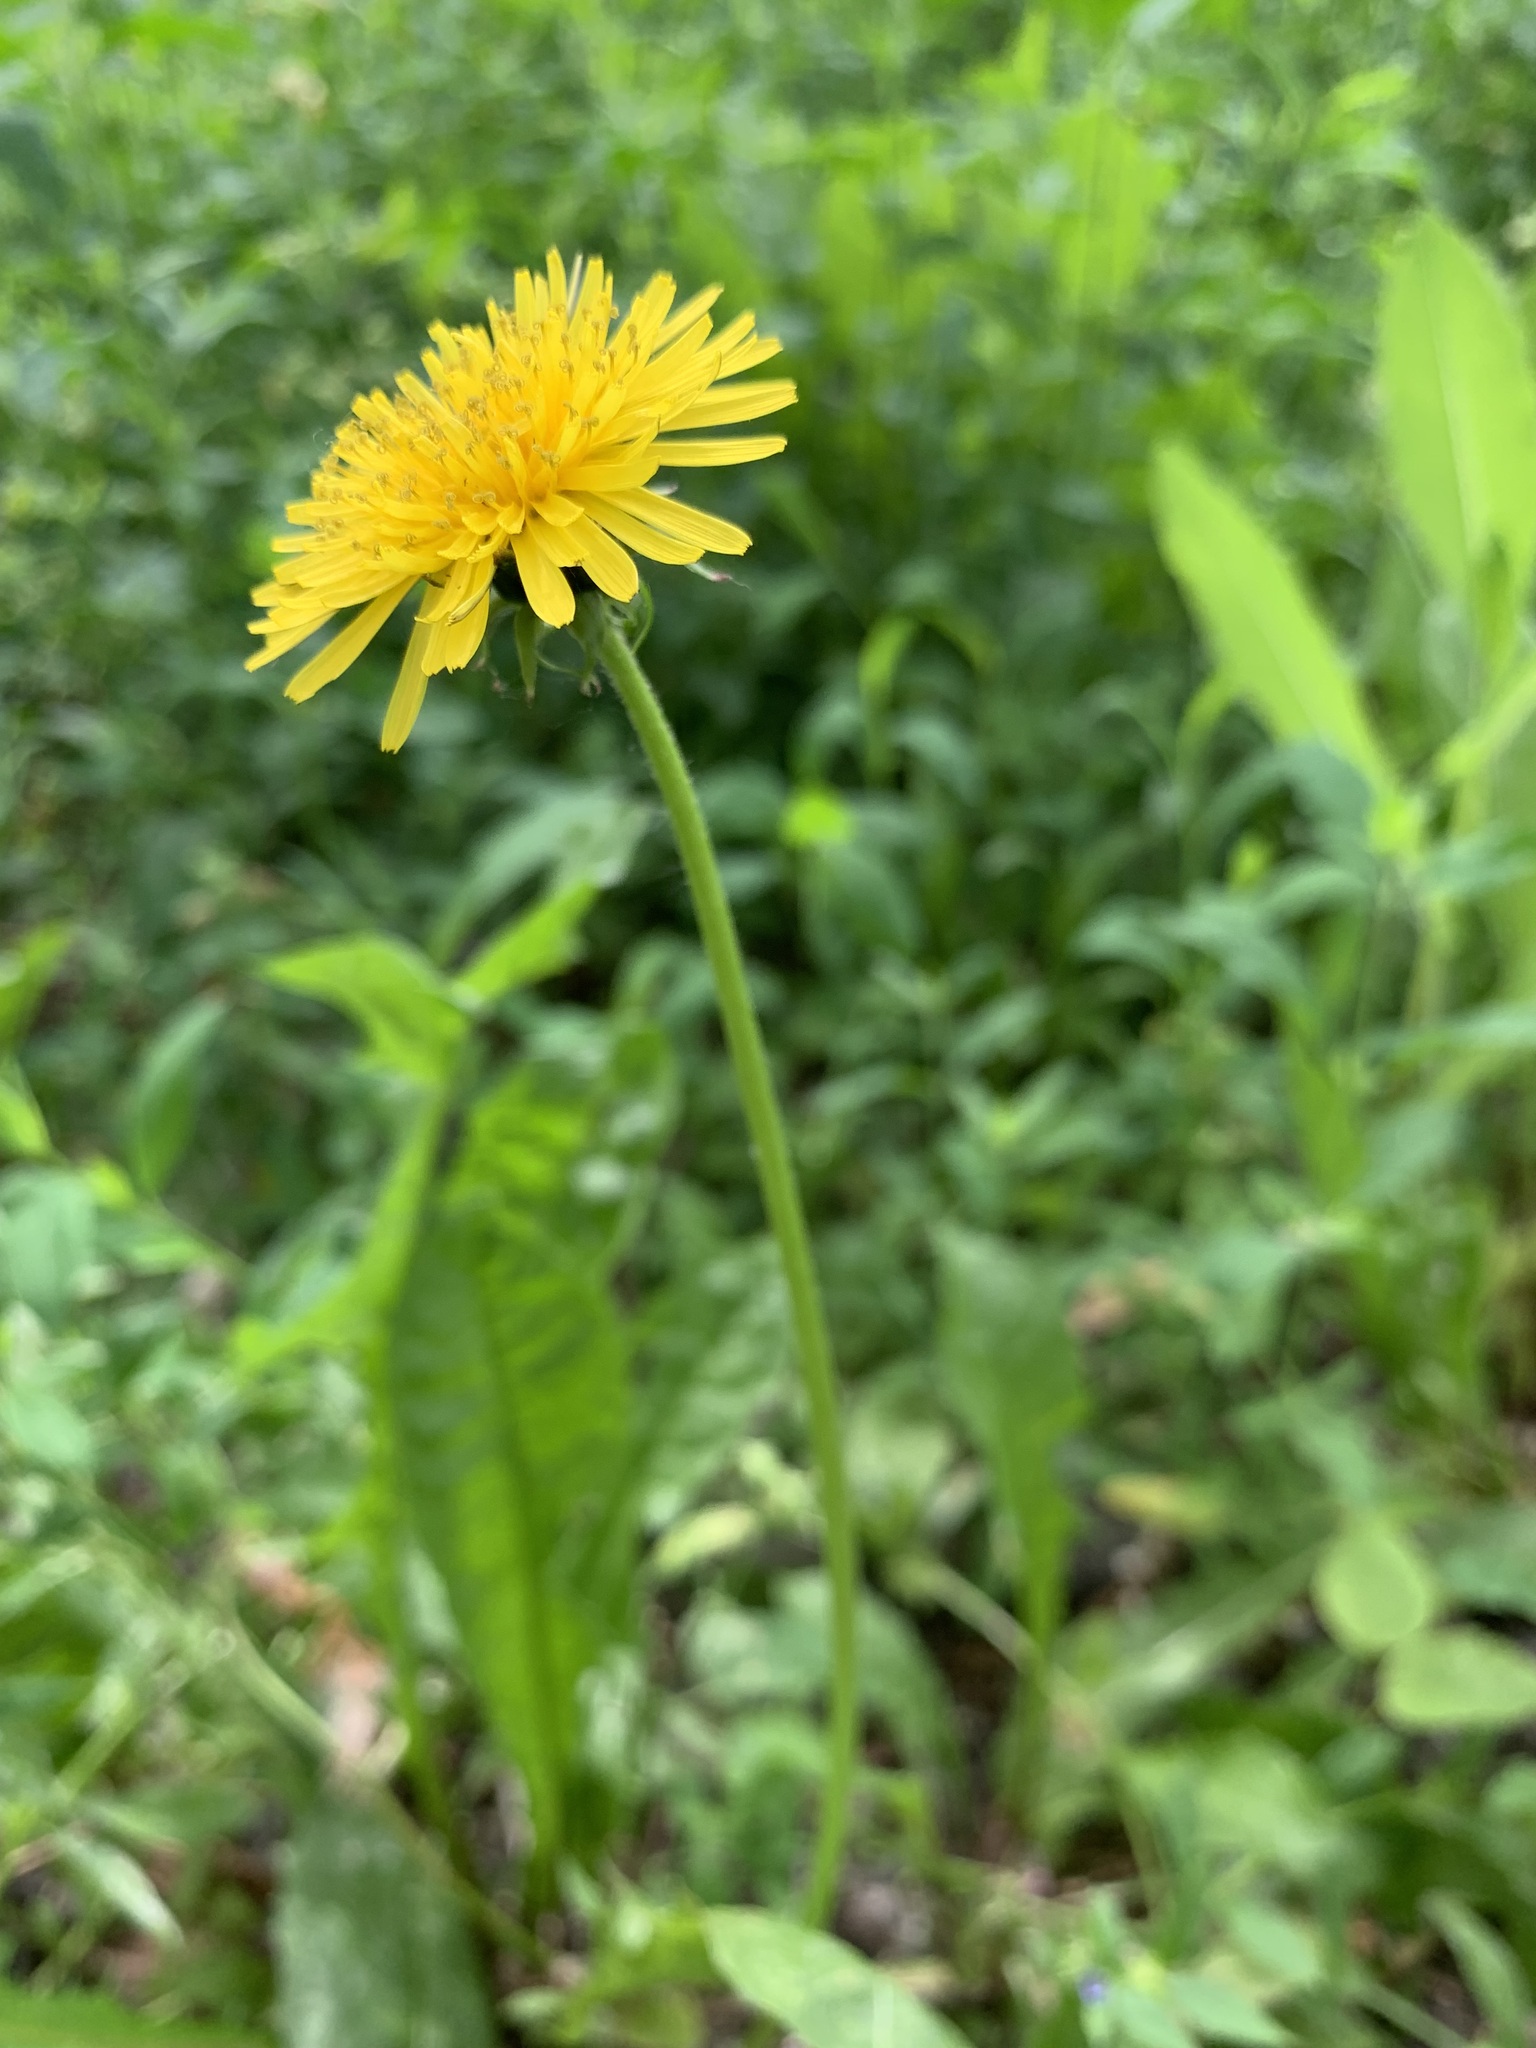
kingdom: Plantae
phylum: Tracheophyta
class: Magnoliopsida
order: Asterales
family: Asteraceae
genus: Taraxacum
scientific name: Taraxacum officinale
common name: Common dandelion
